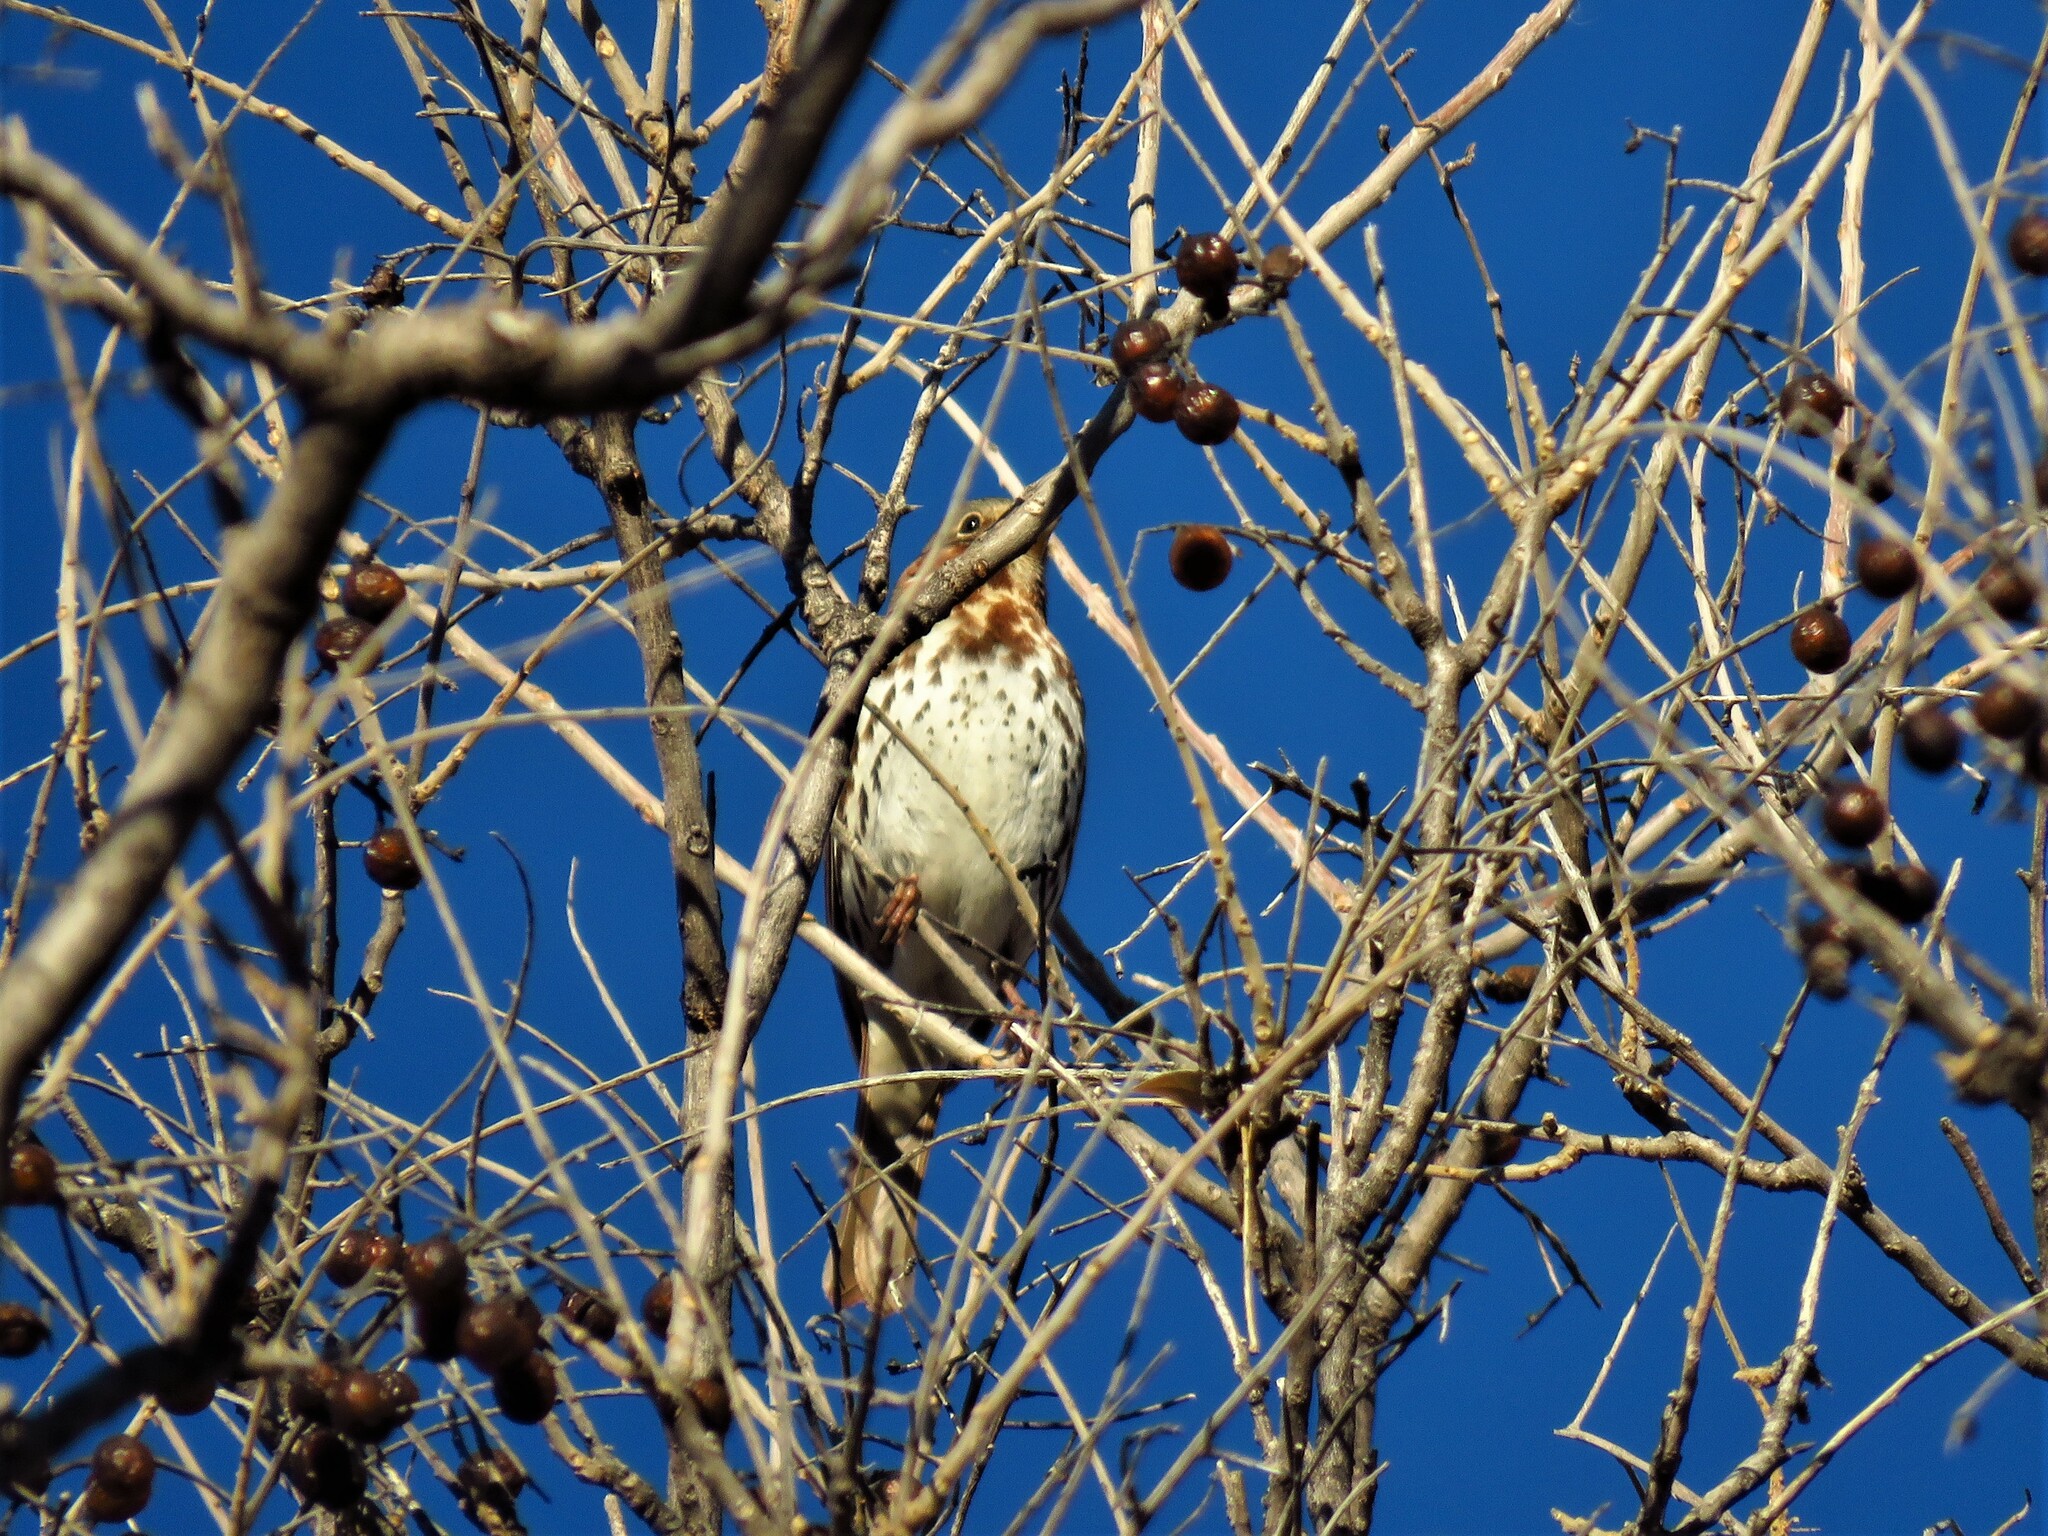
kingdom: Animalia
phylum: Chordata
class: Aves
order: Passeriformes
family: Passerellidae
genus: Passerella
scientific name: Passerella iliaca
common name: Fox sparrow
